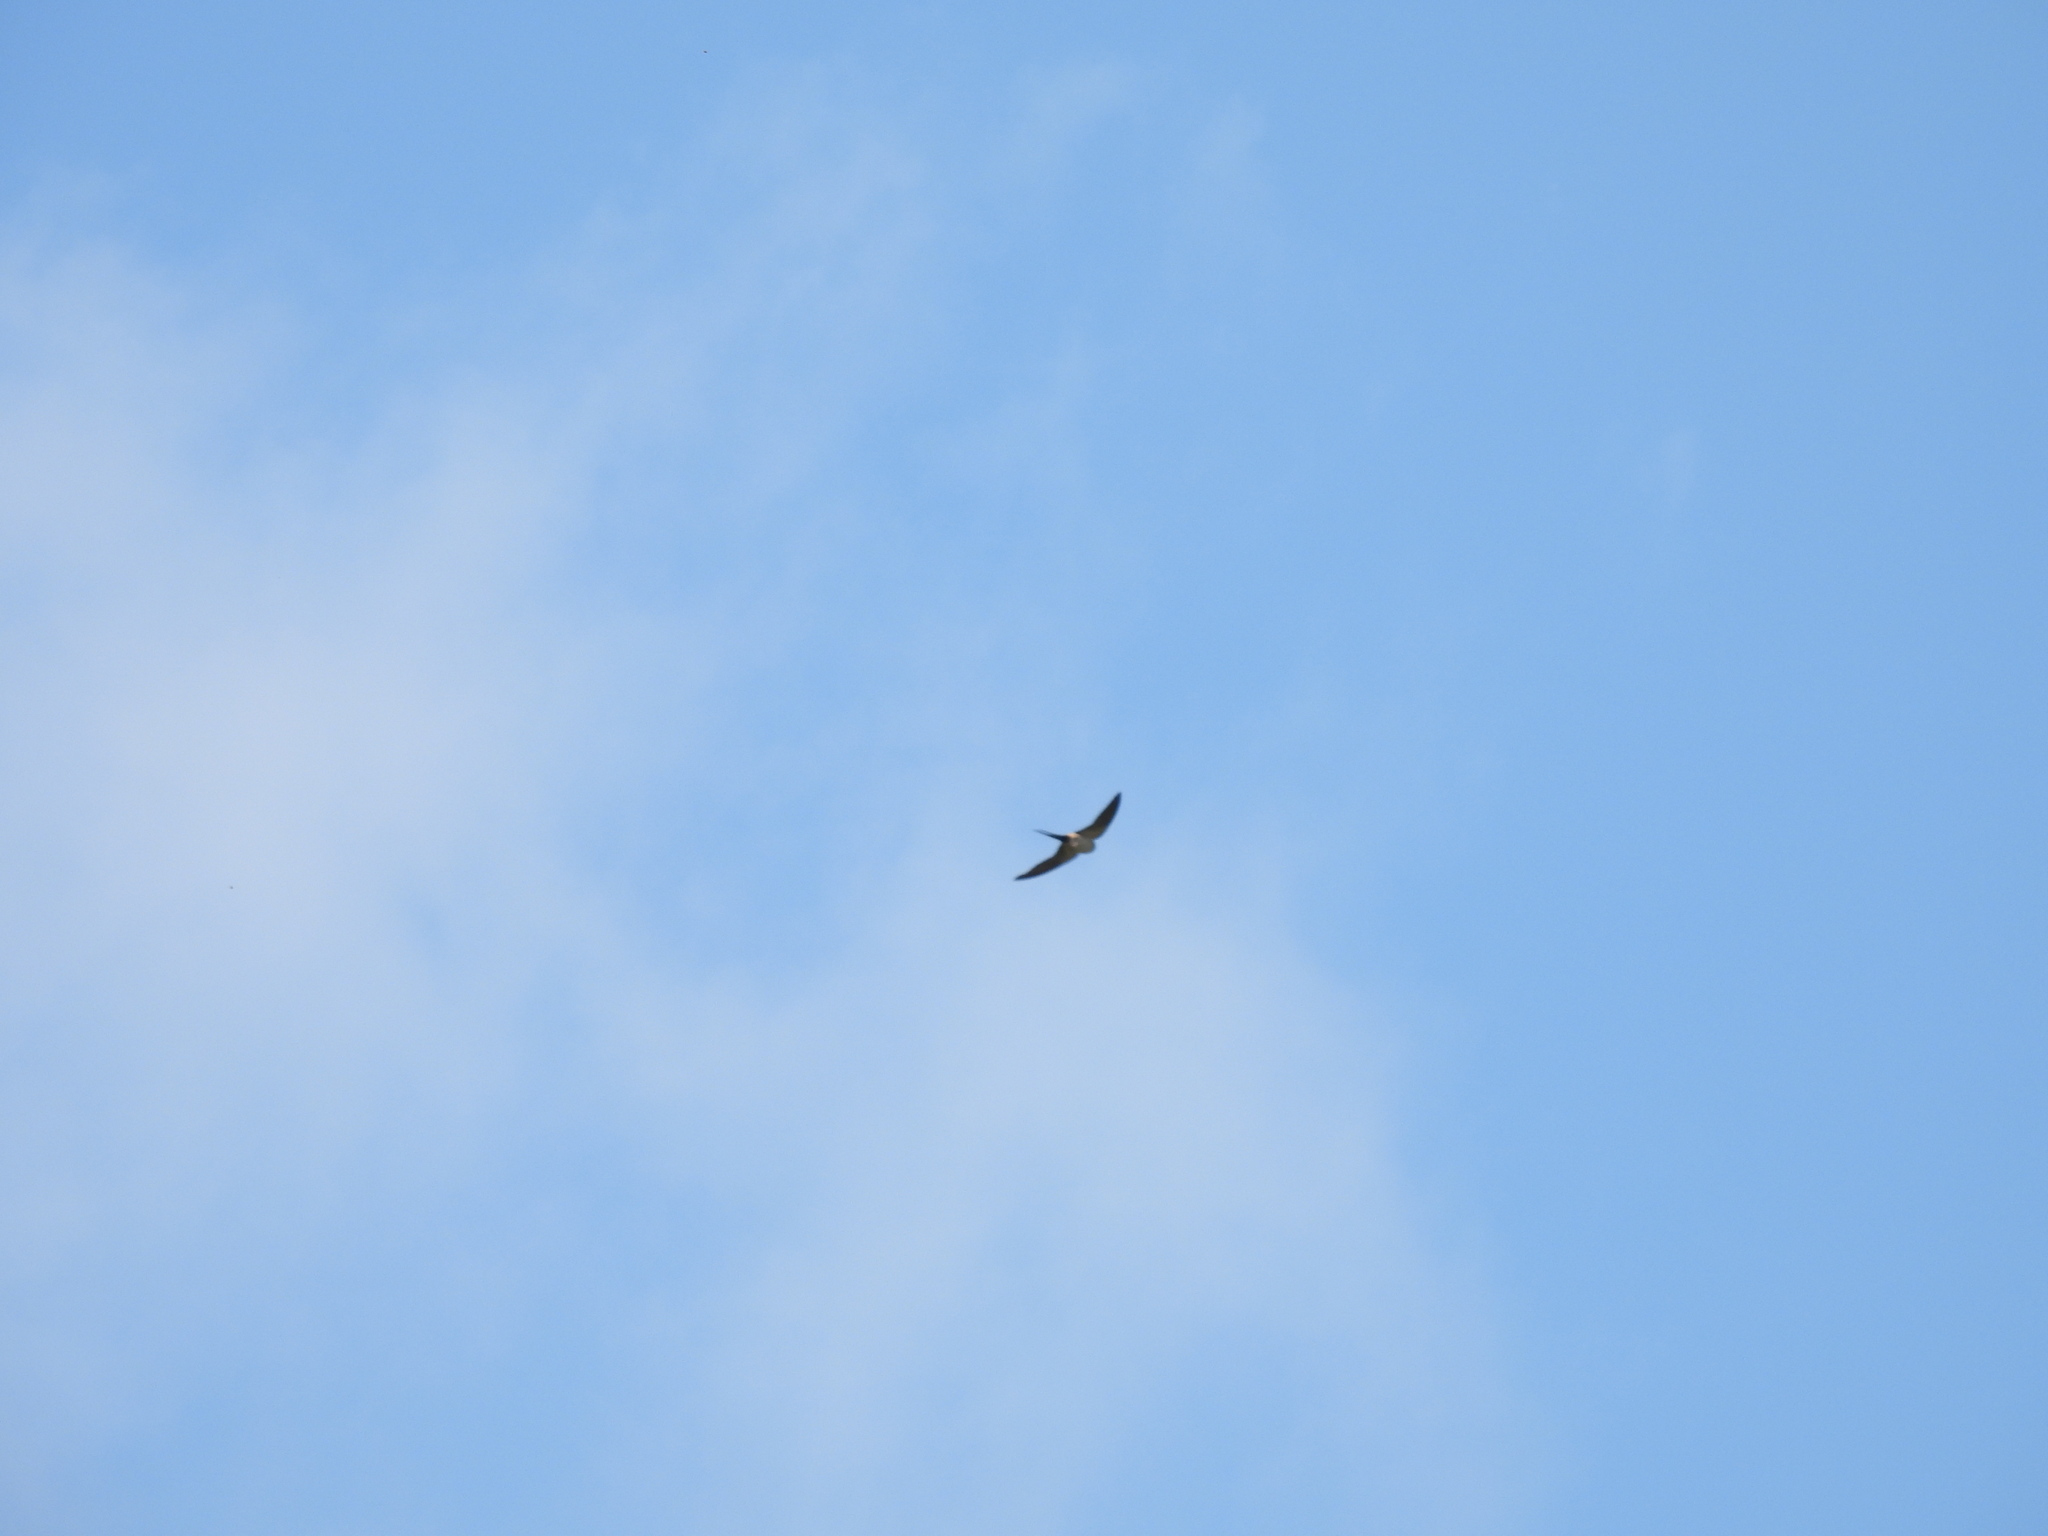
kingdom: Animalia
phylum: Chordata
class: Aves
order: Passeriformes
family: Hirundinidae
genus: Cecropis
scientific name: Cecropis striolata
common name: Striated swallow
